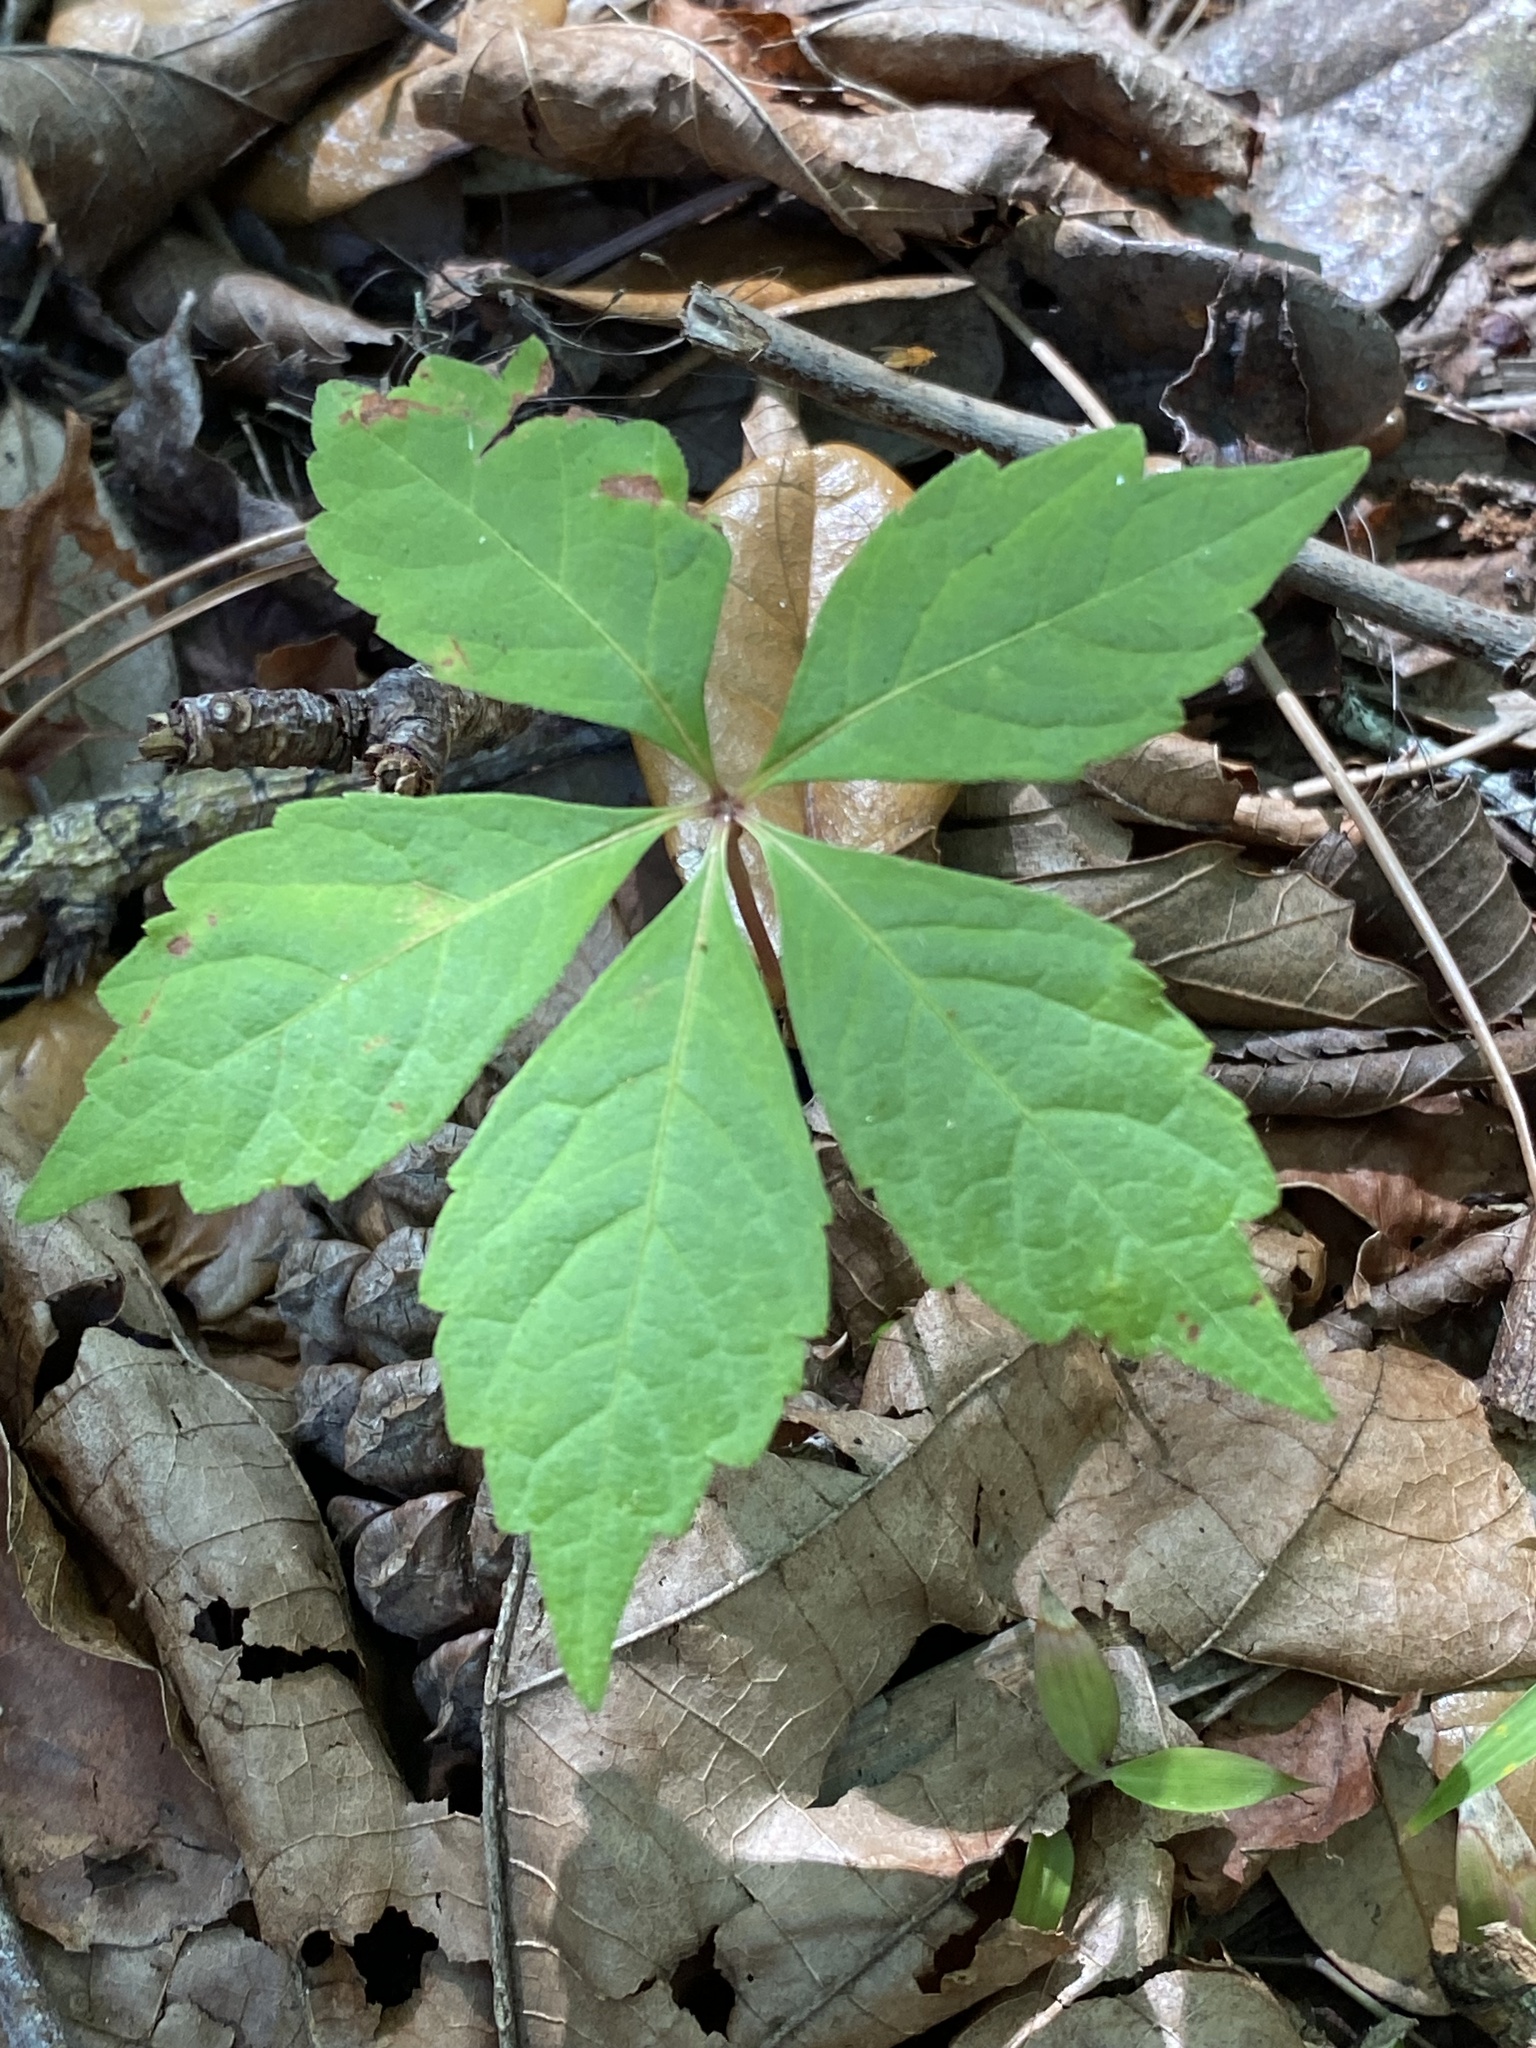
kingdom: Plantae
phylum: Tracheophyta
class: Magnoliopsida
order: Vitales
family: Vitaceae
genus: Parthenocissus
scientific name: Parthenocissus quinquefolia
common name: Virginia-creeper
